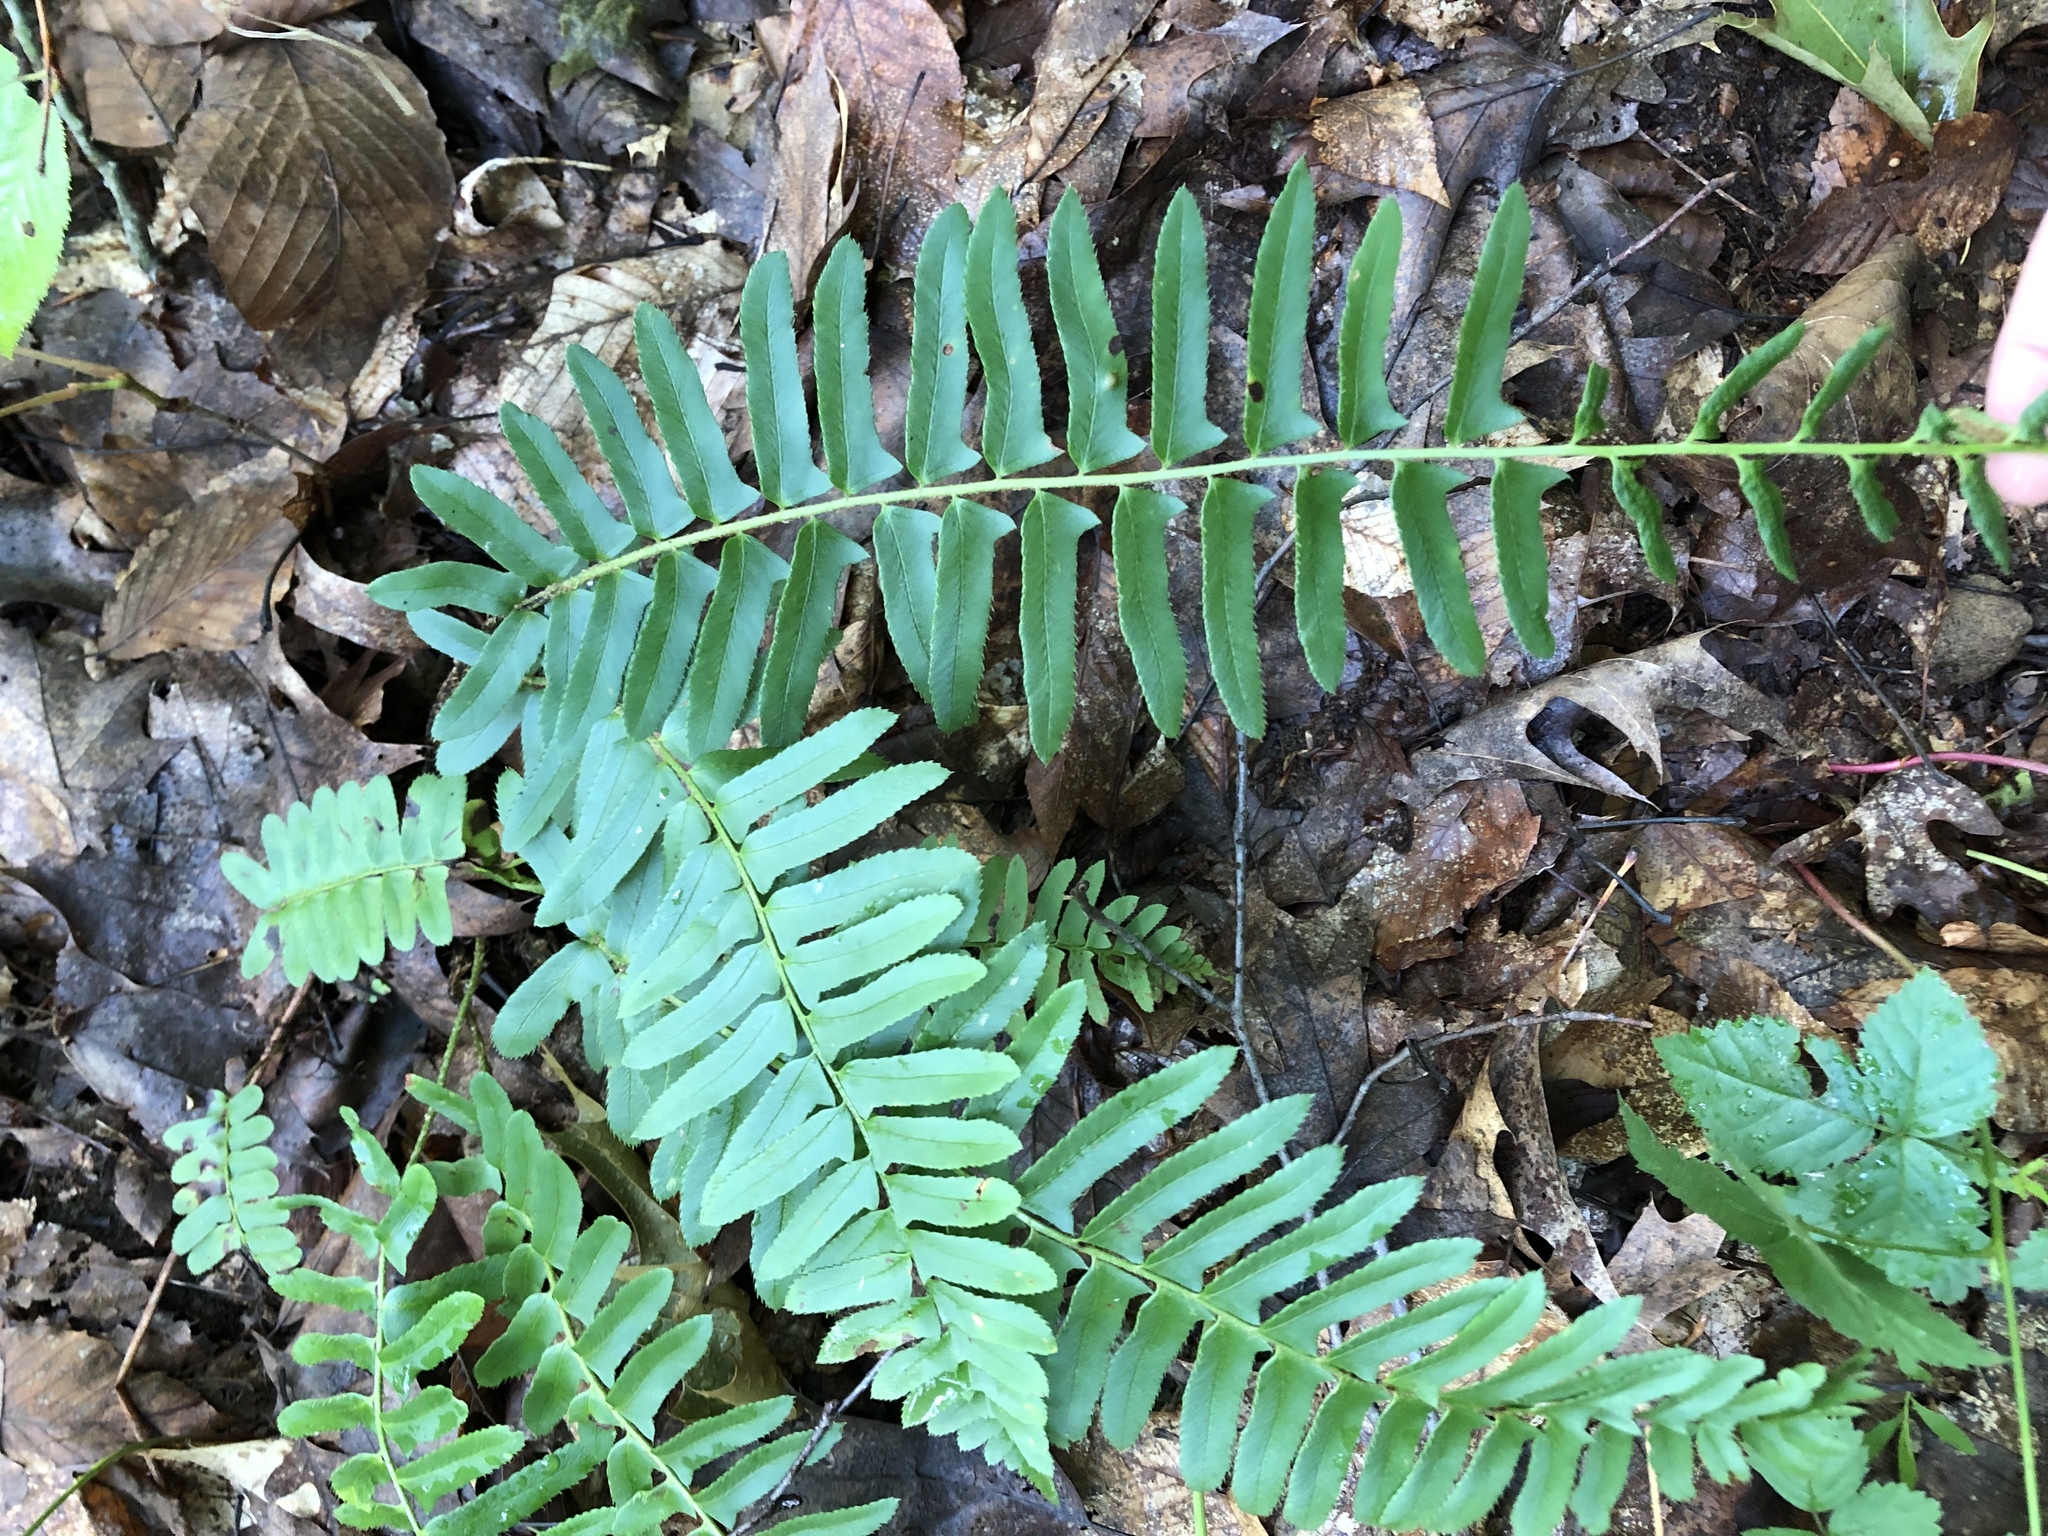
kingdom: Plantae
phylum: Tracheophyta
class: Polypodiopsida
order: Polypodiales
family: Dryopteridaceae
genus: Polystichum
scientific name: Polystichum acrostichoides
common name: Christmas fern
